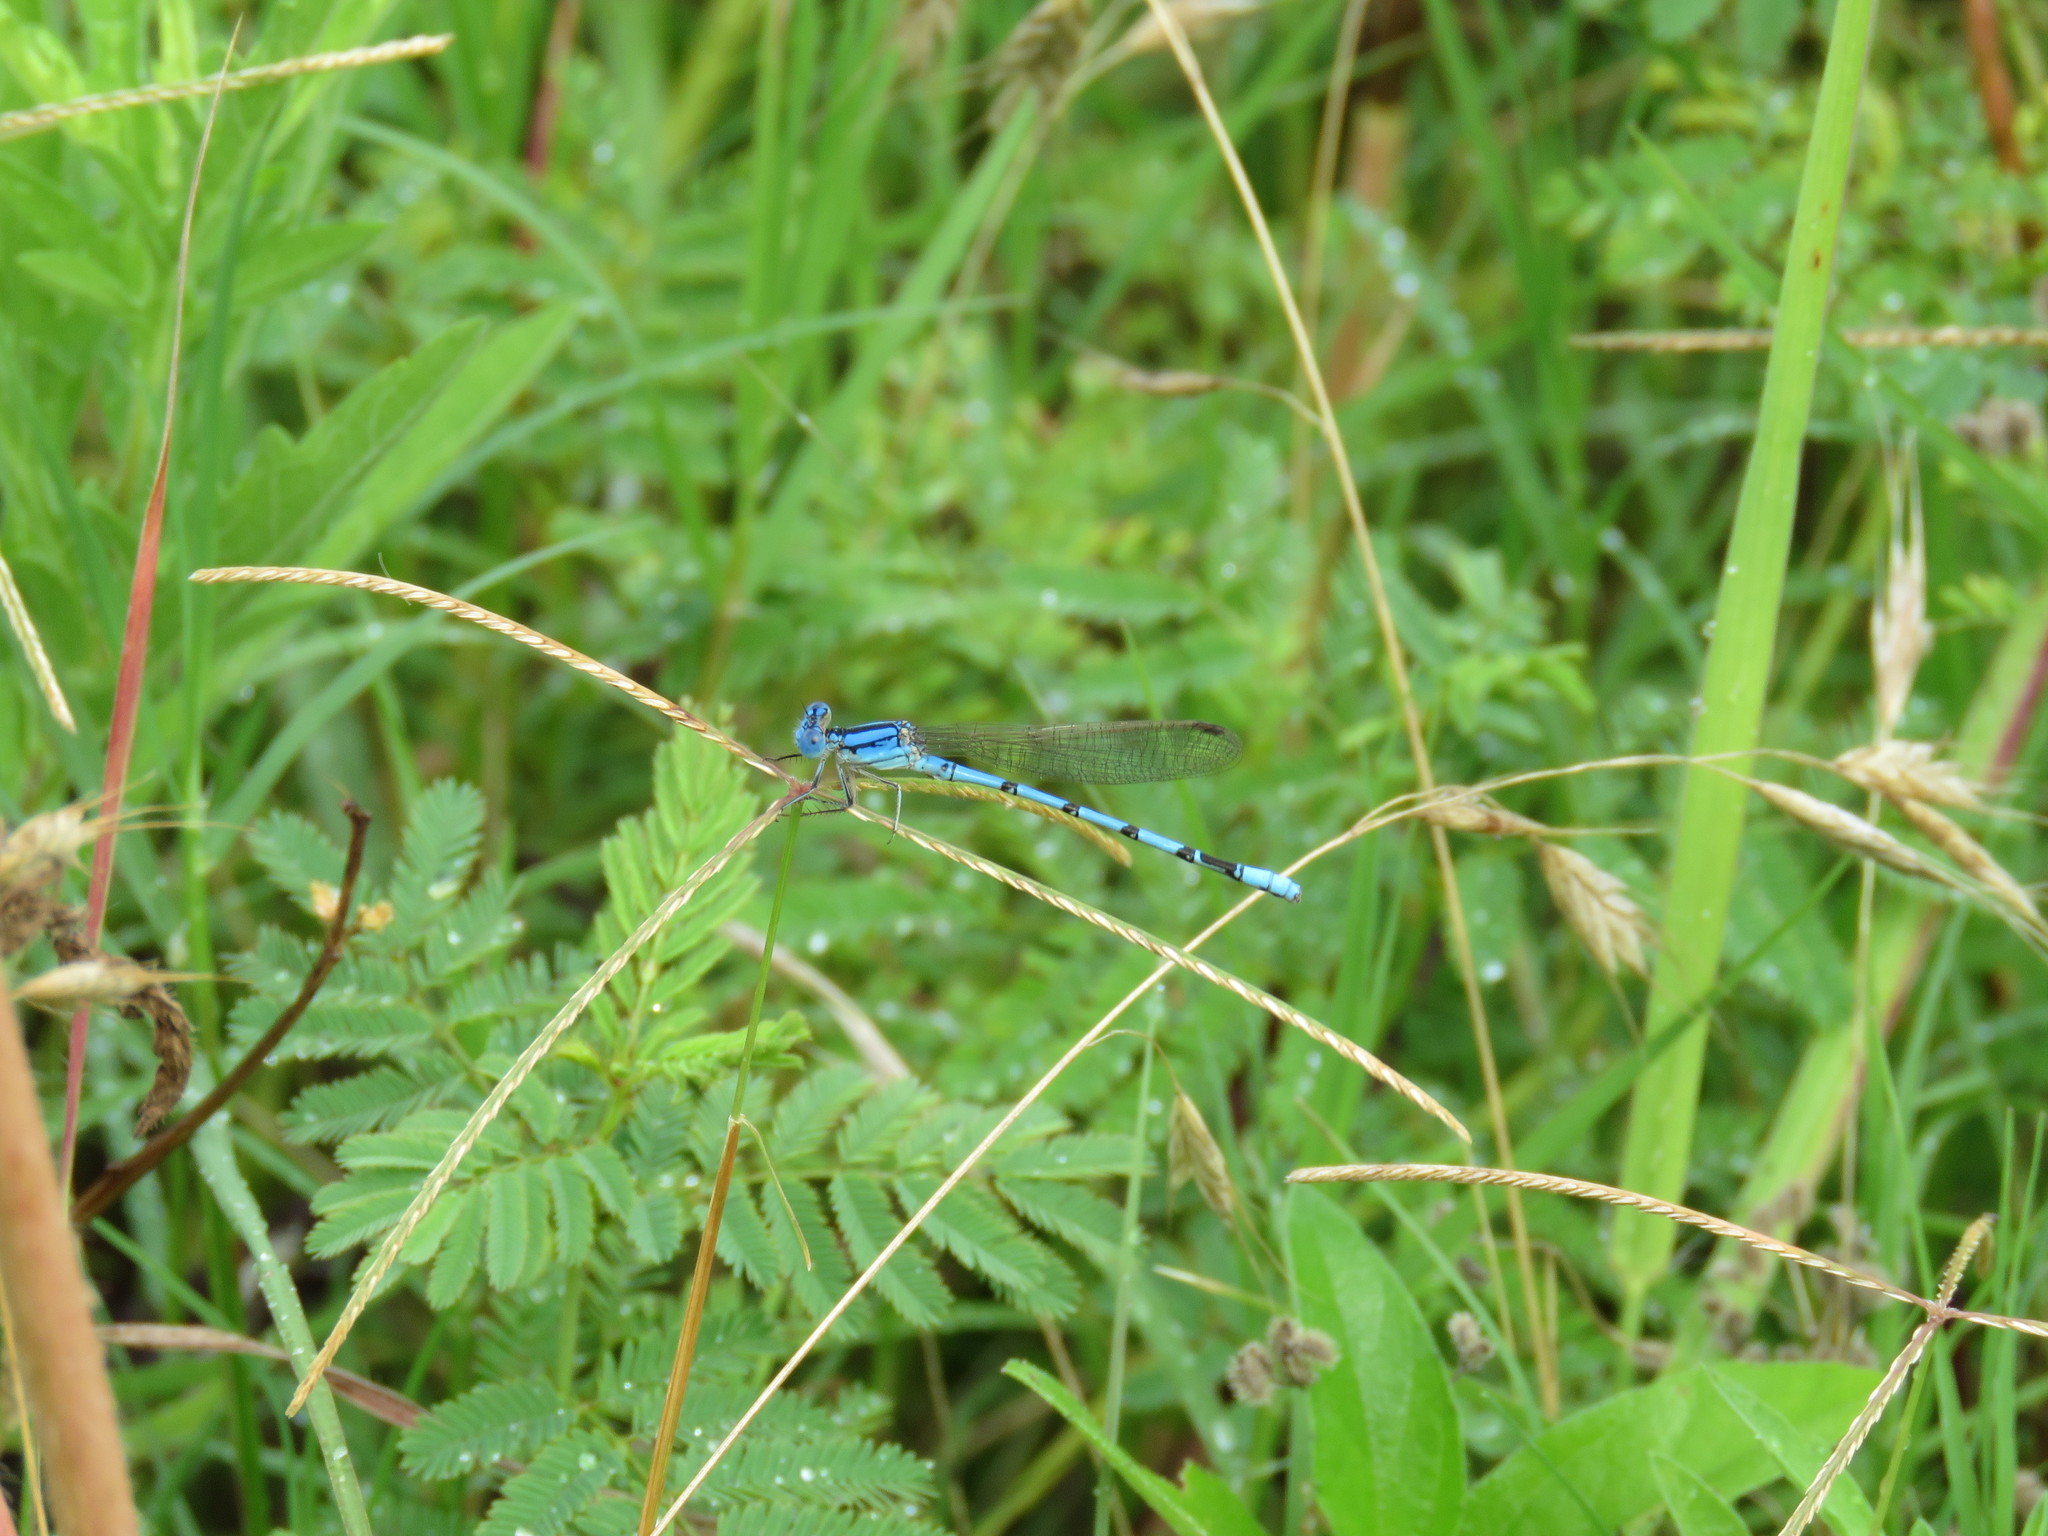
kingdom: Animalia
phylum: Arthropoda
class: Insecta
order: Odonata
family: Coenagrionidae
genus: Argia
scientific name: Argia nahuana
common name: Aztec dancer
